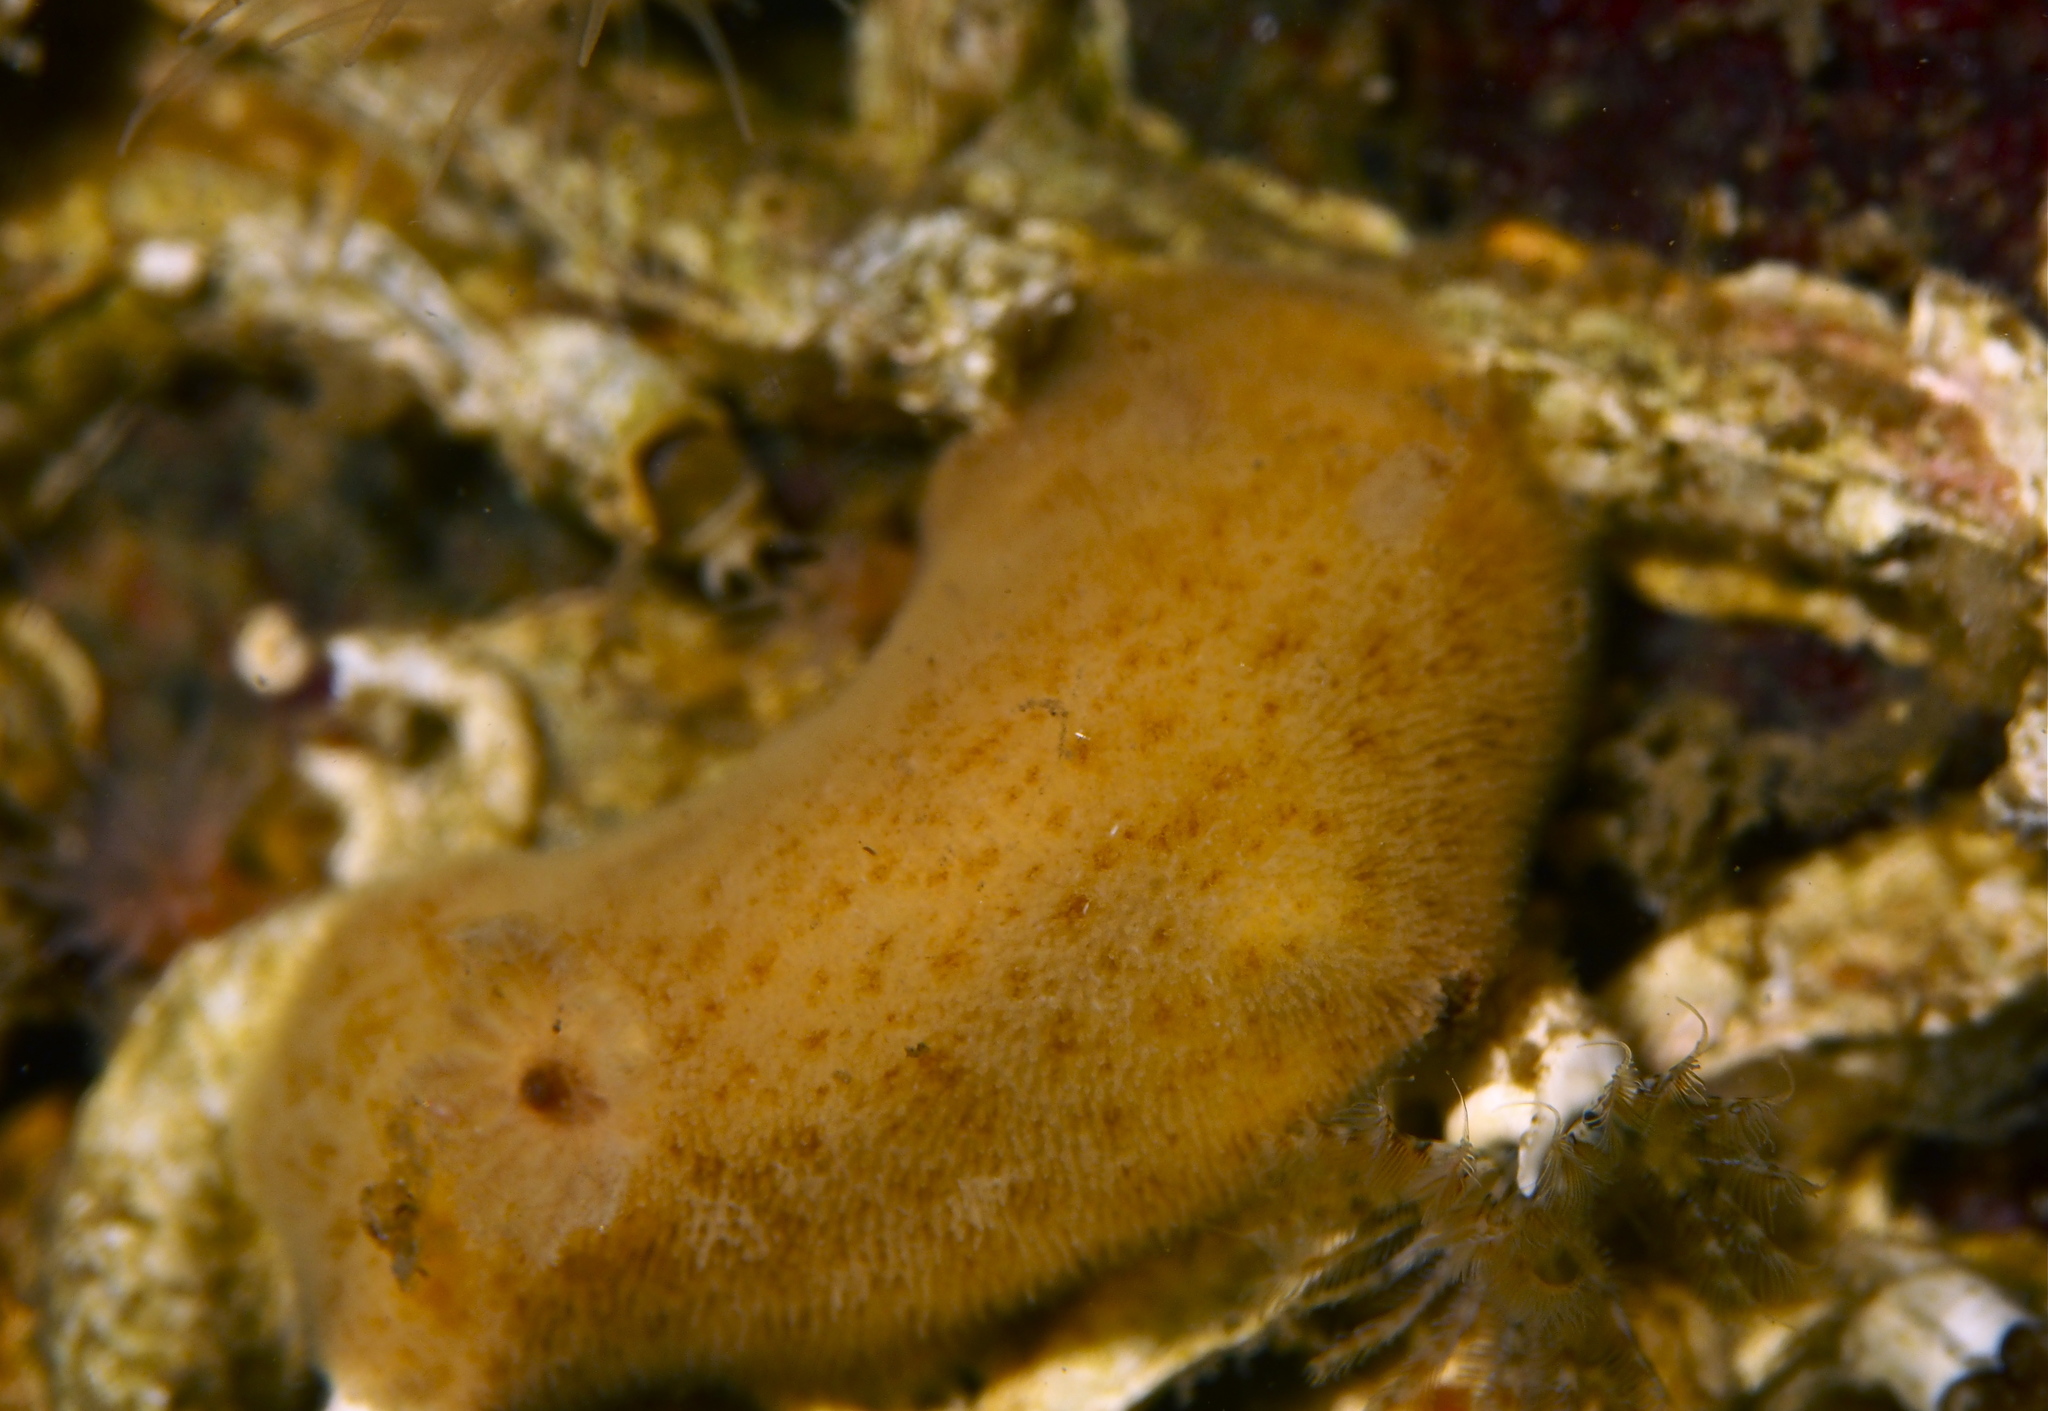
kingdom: Animalia
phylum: Mollusca
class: Gastropoda
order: Nudibranchia
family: Discodorididae
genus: Jorunna
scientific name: Jorunna tomentosa
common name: Grey sea slug
